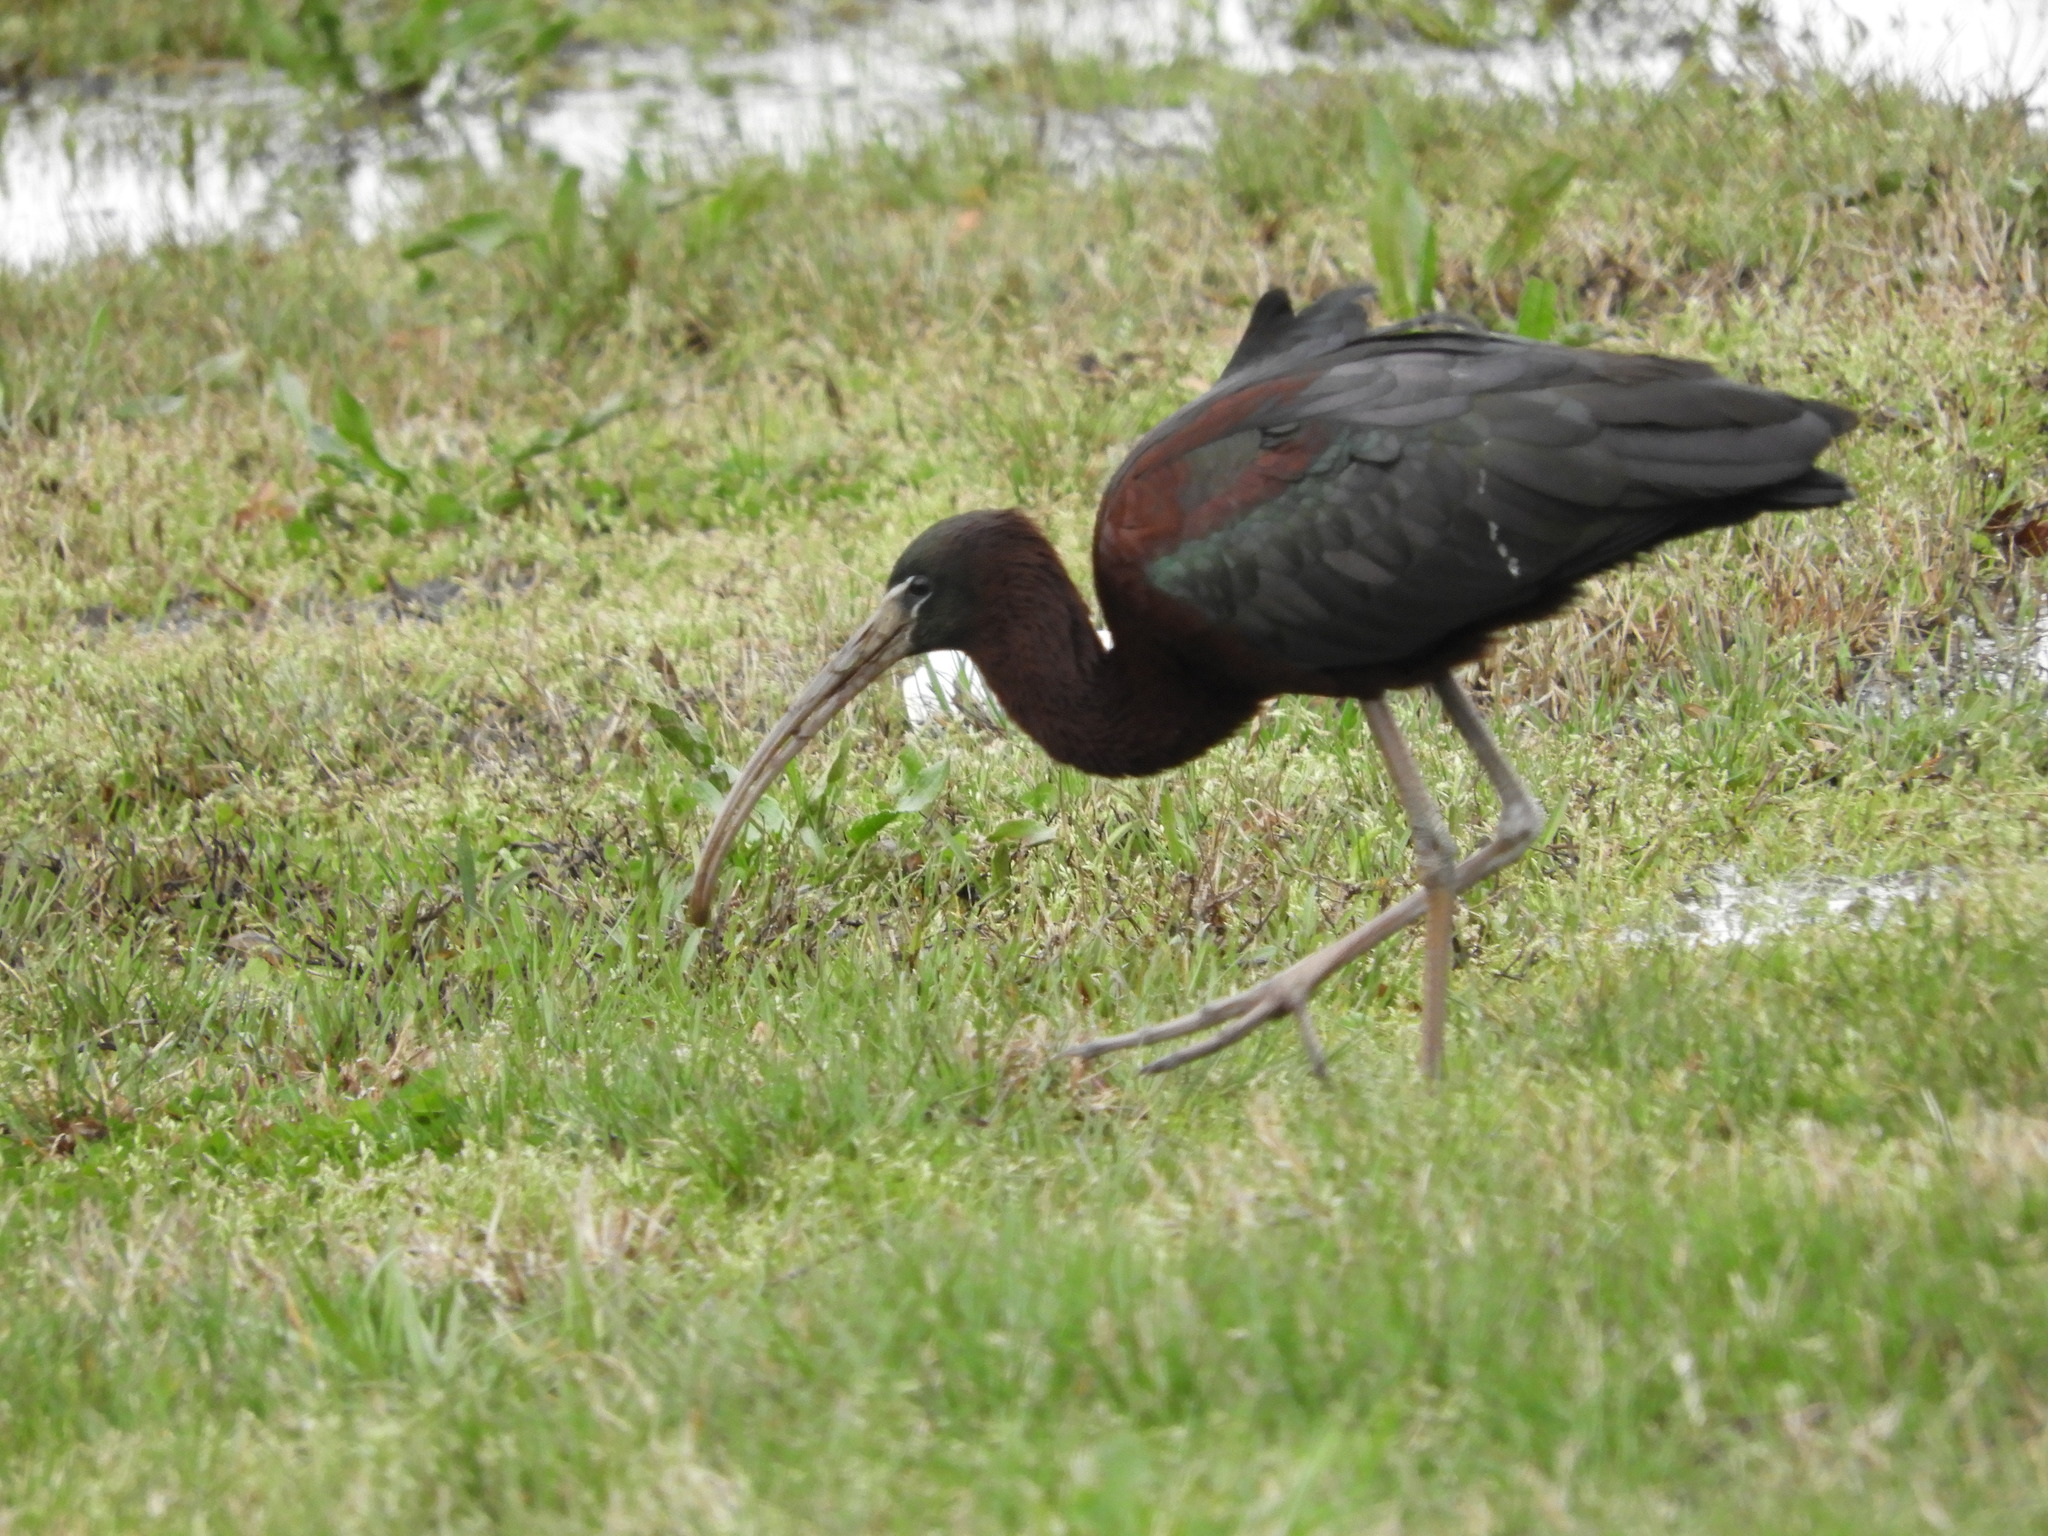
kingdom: Animalia
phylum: Chordata
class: Aves
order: Pelecaniformes
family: Threskiornithidae
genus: Plegadis
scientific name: Plegadis falcinellus
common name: Glossy ibis
